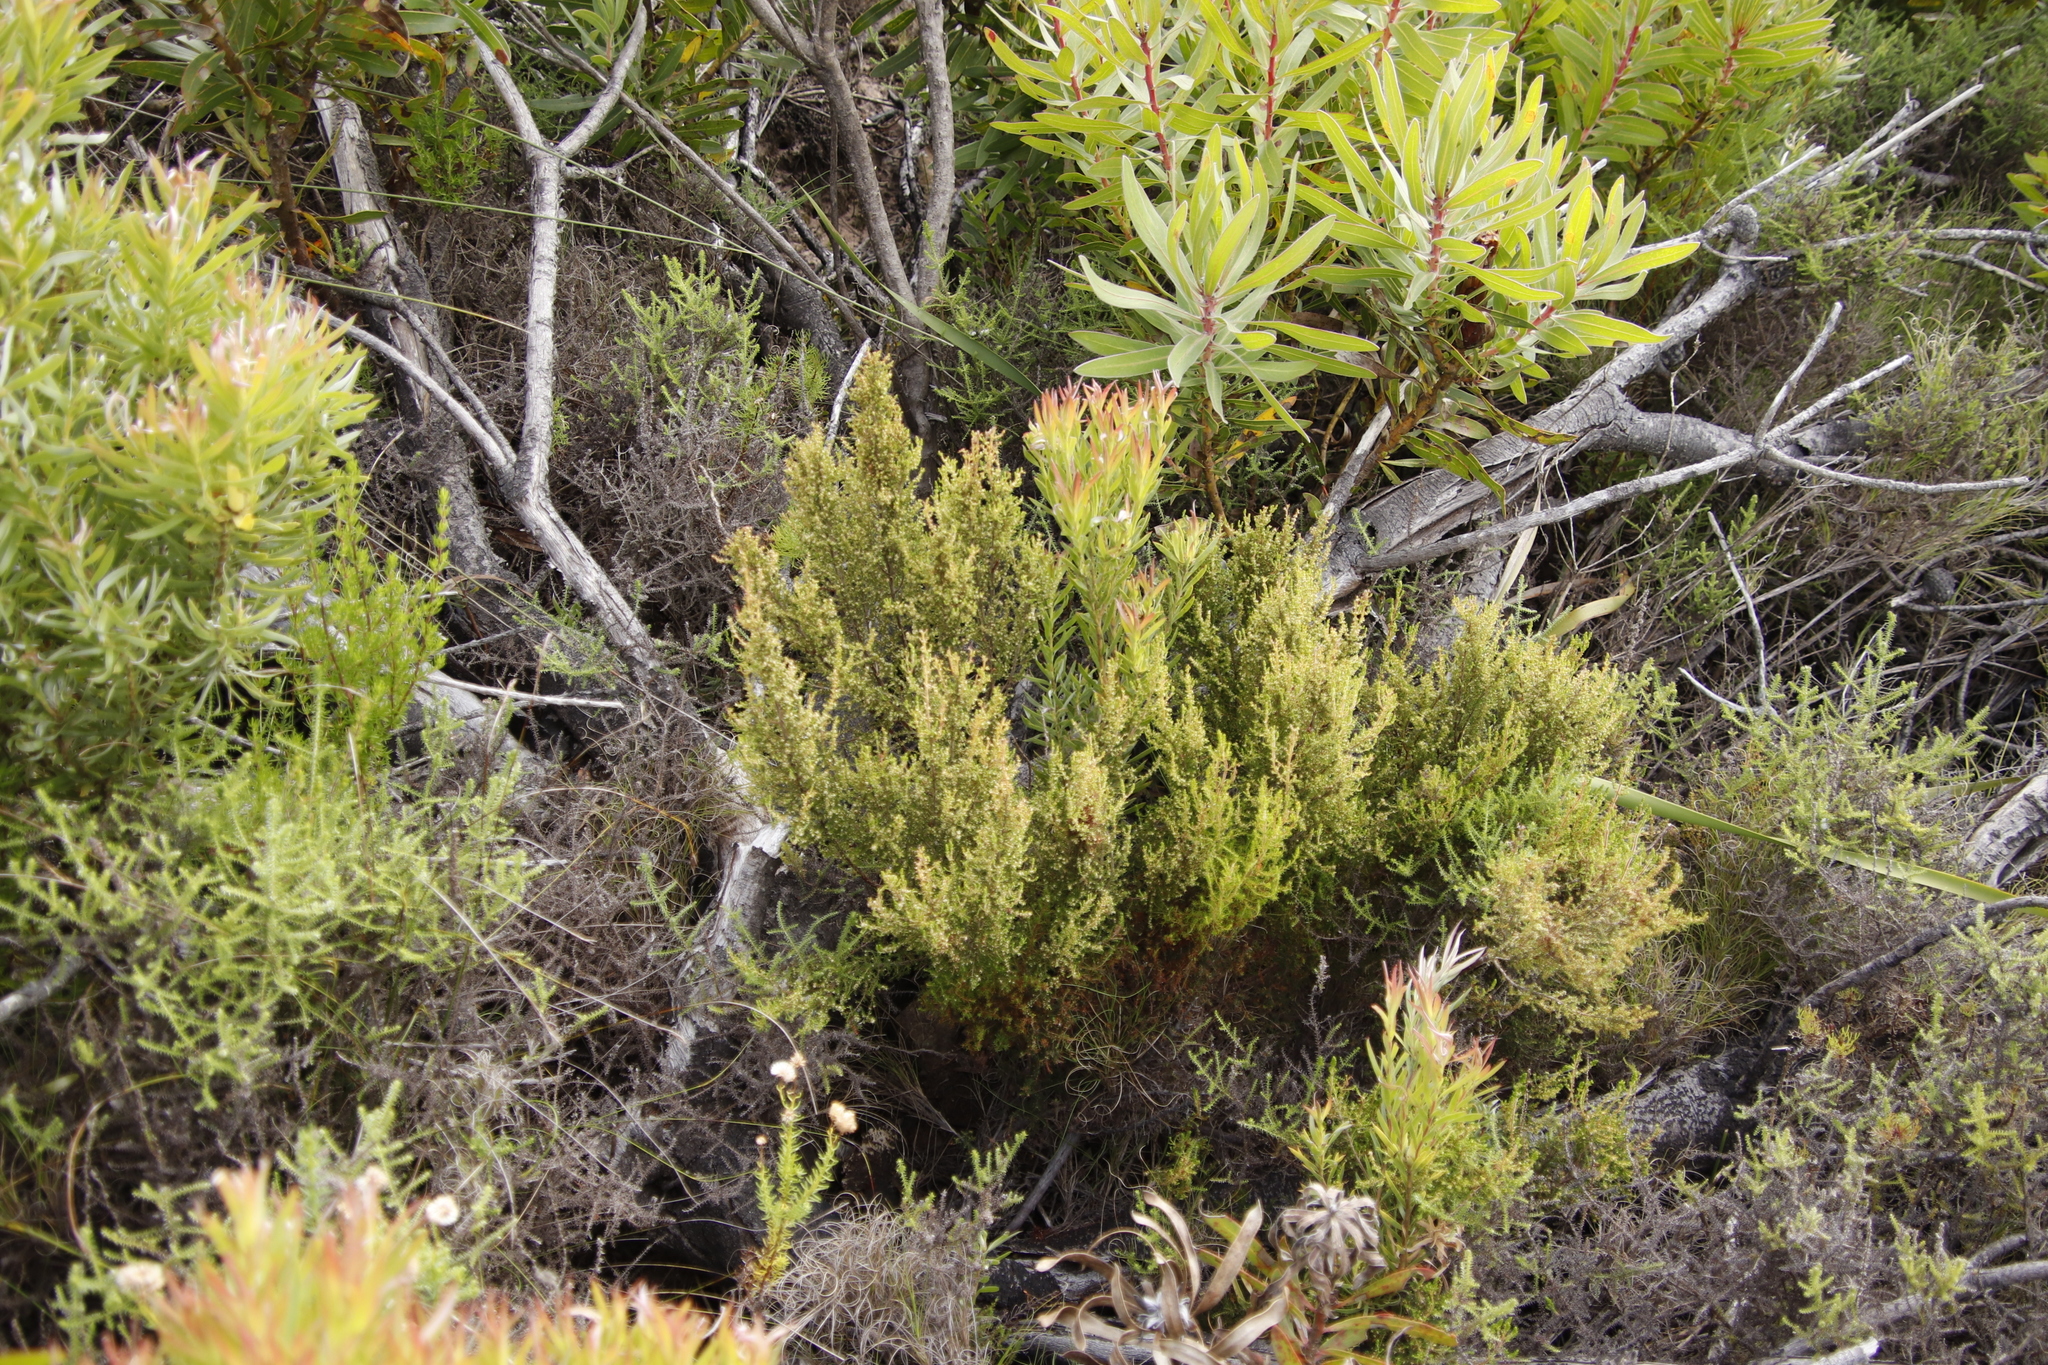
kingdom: Plantae
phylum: Tracheophyta
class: Magnoliopsida
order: Ericales
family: Ericaceae
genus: Erica
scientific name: Erica muscosa
